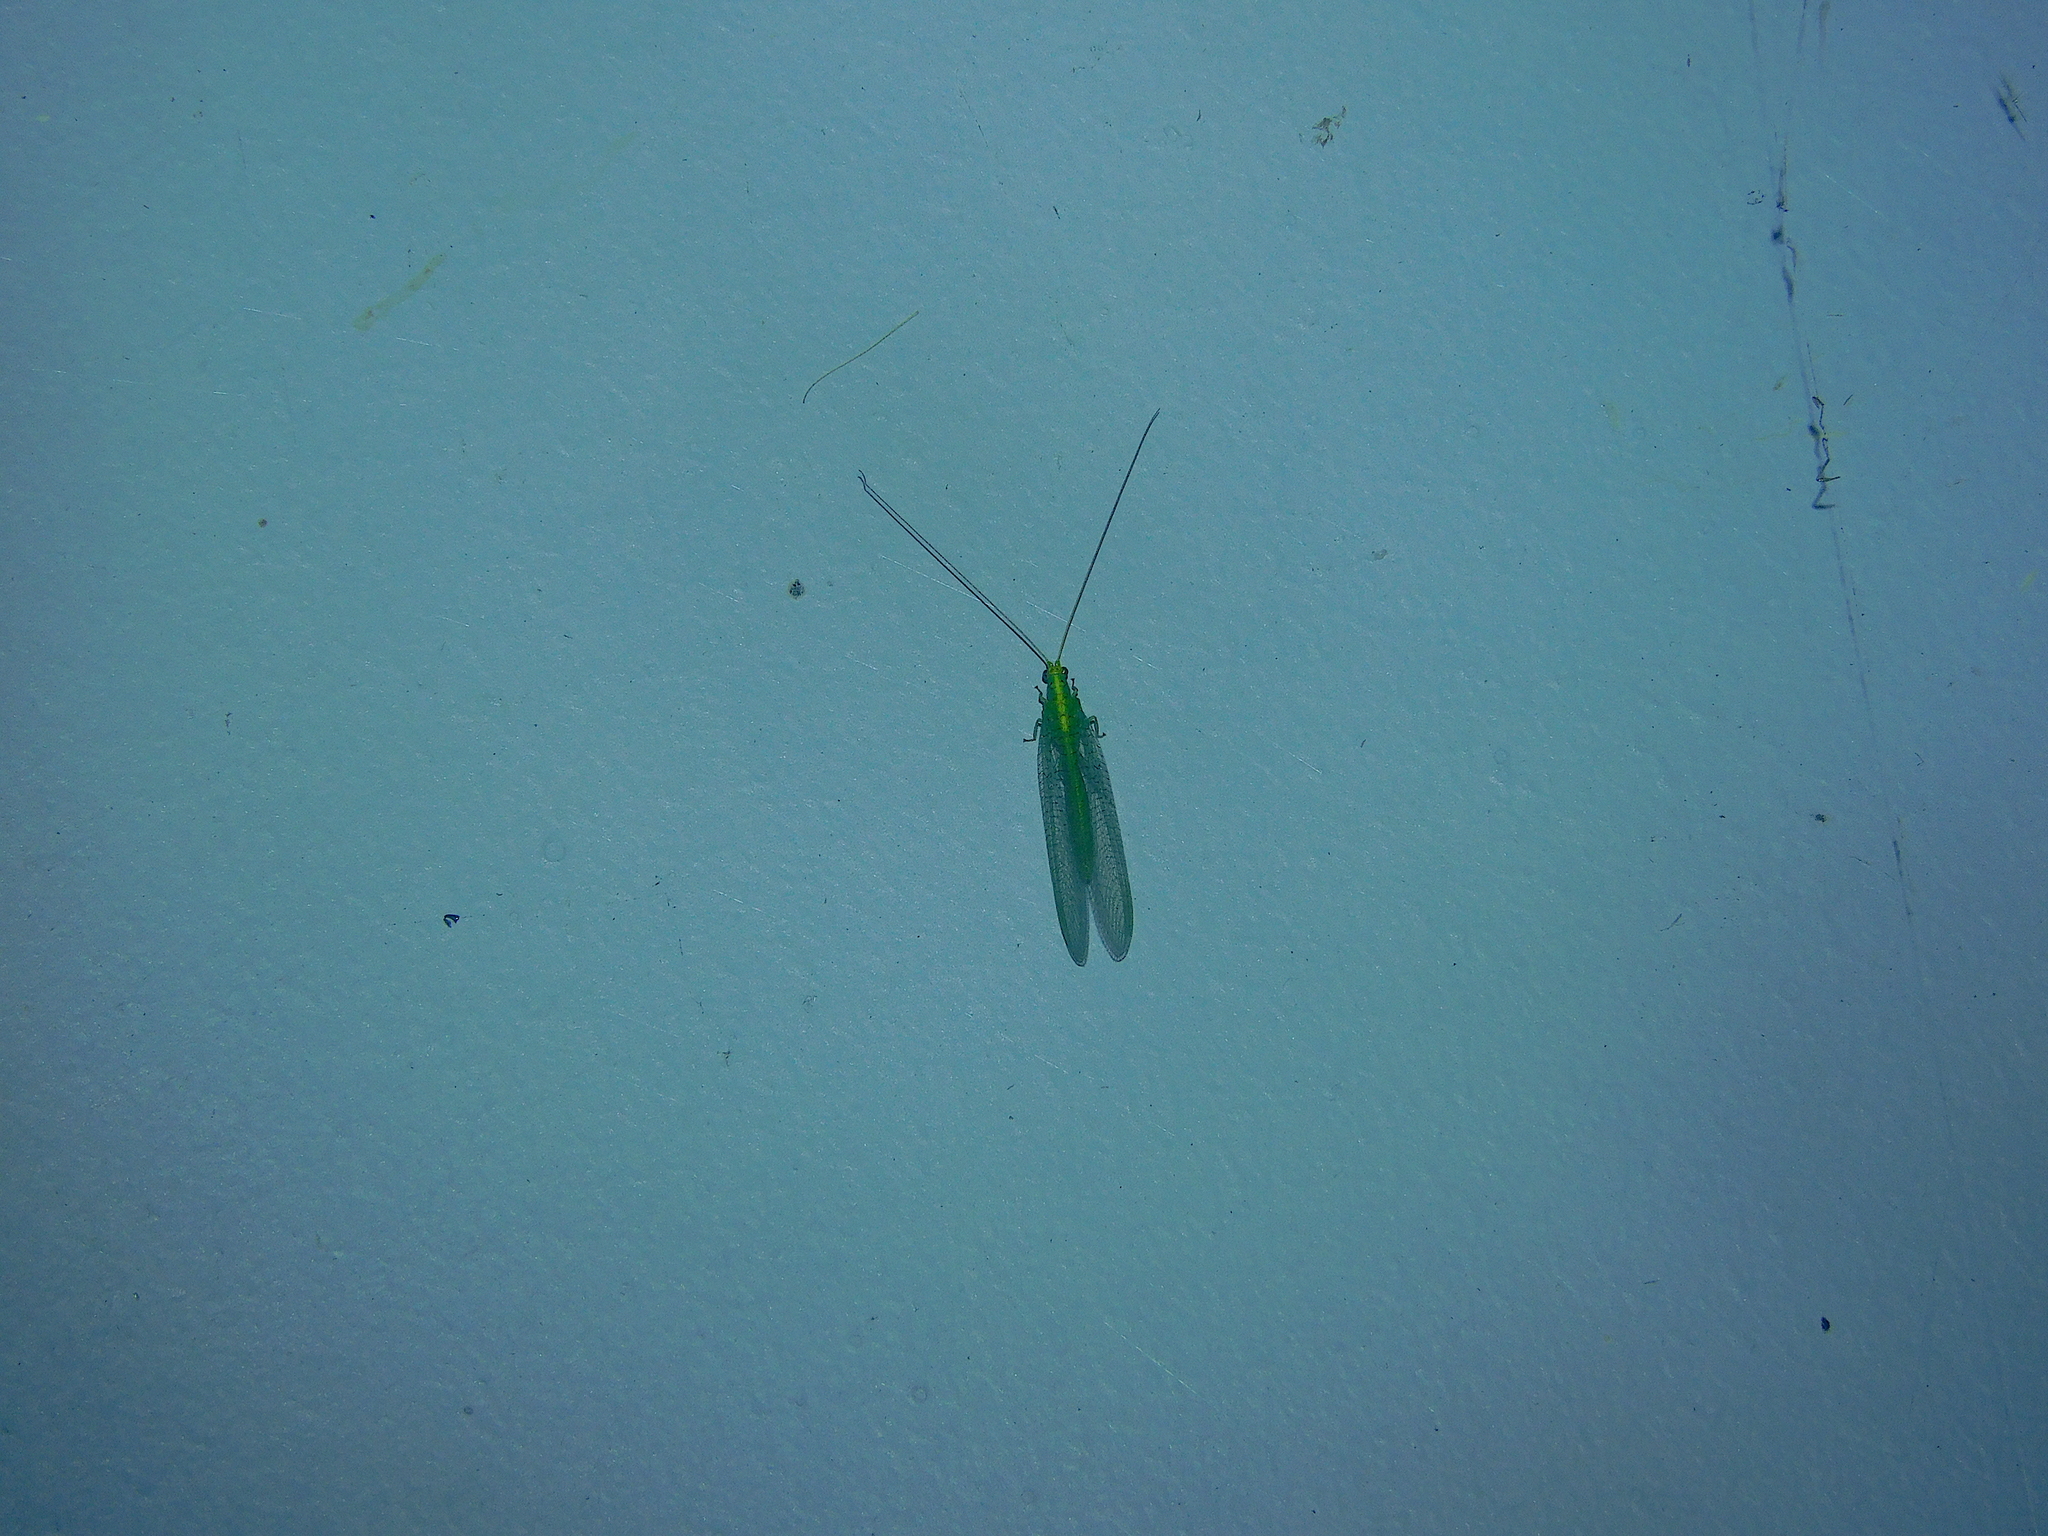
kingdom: Animalia
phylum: Arthropoda
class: Insecta
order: Neuroptera
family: Chrysopidae
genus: Pseudomallada
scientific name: Pseudomallada edwardsi
